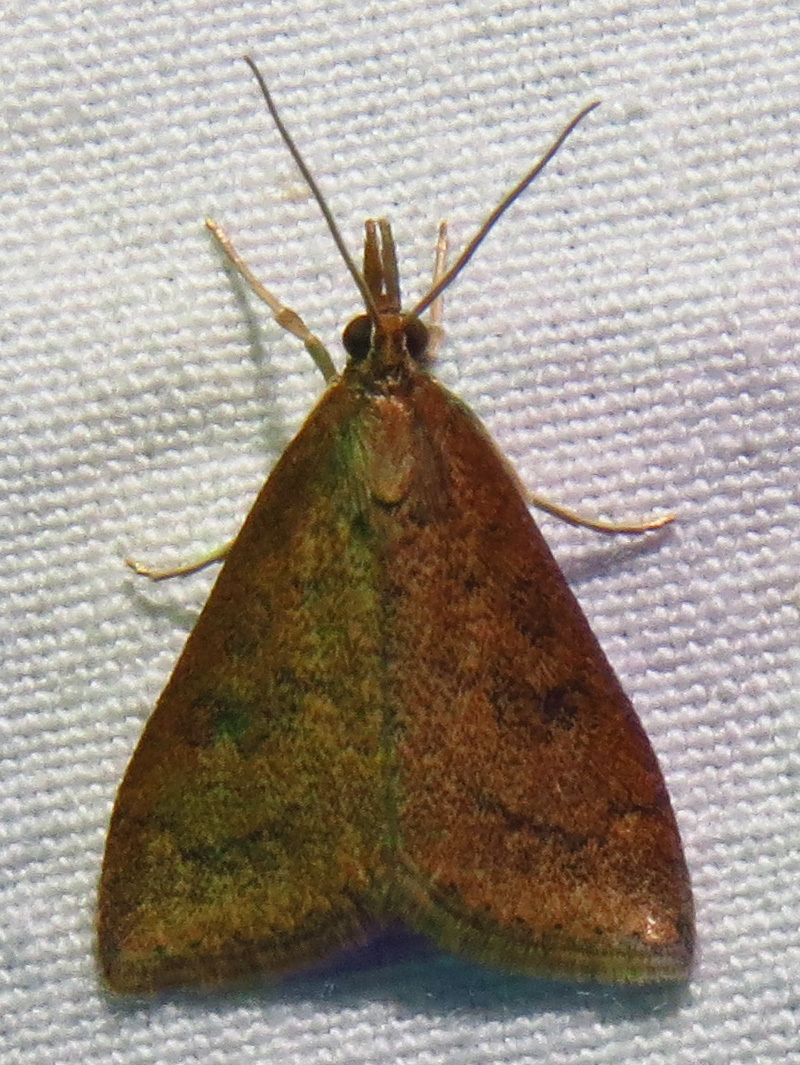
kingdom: Animalia
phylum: Arthropoda
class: Insecta
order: Lepidoptera
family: Crambidae
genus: Udea
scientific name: Udea rubigalis
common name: Celery leaftier moth
